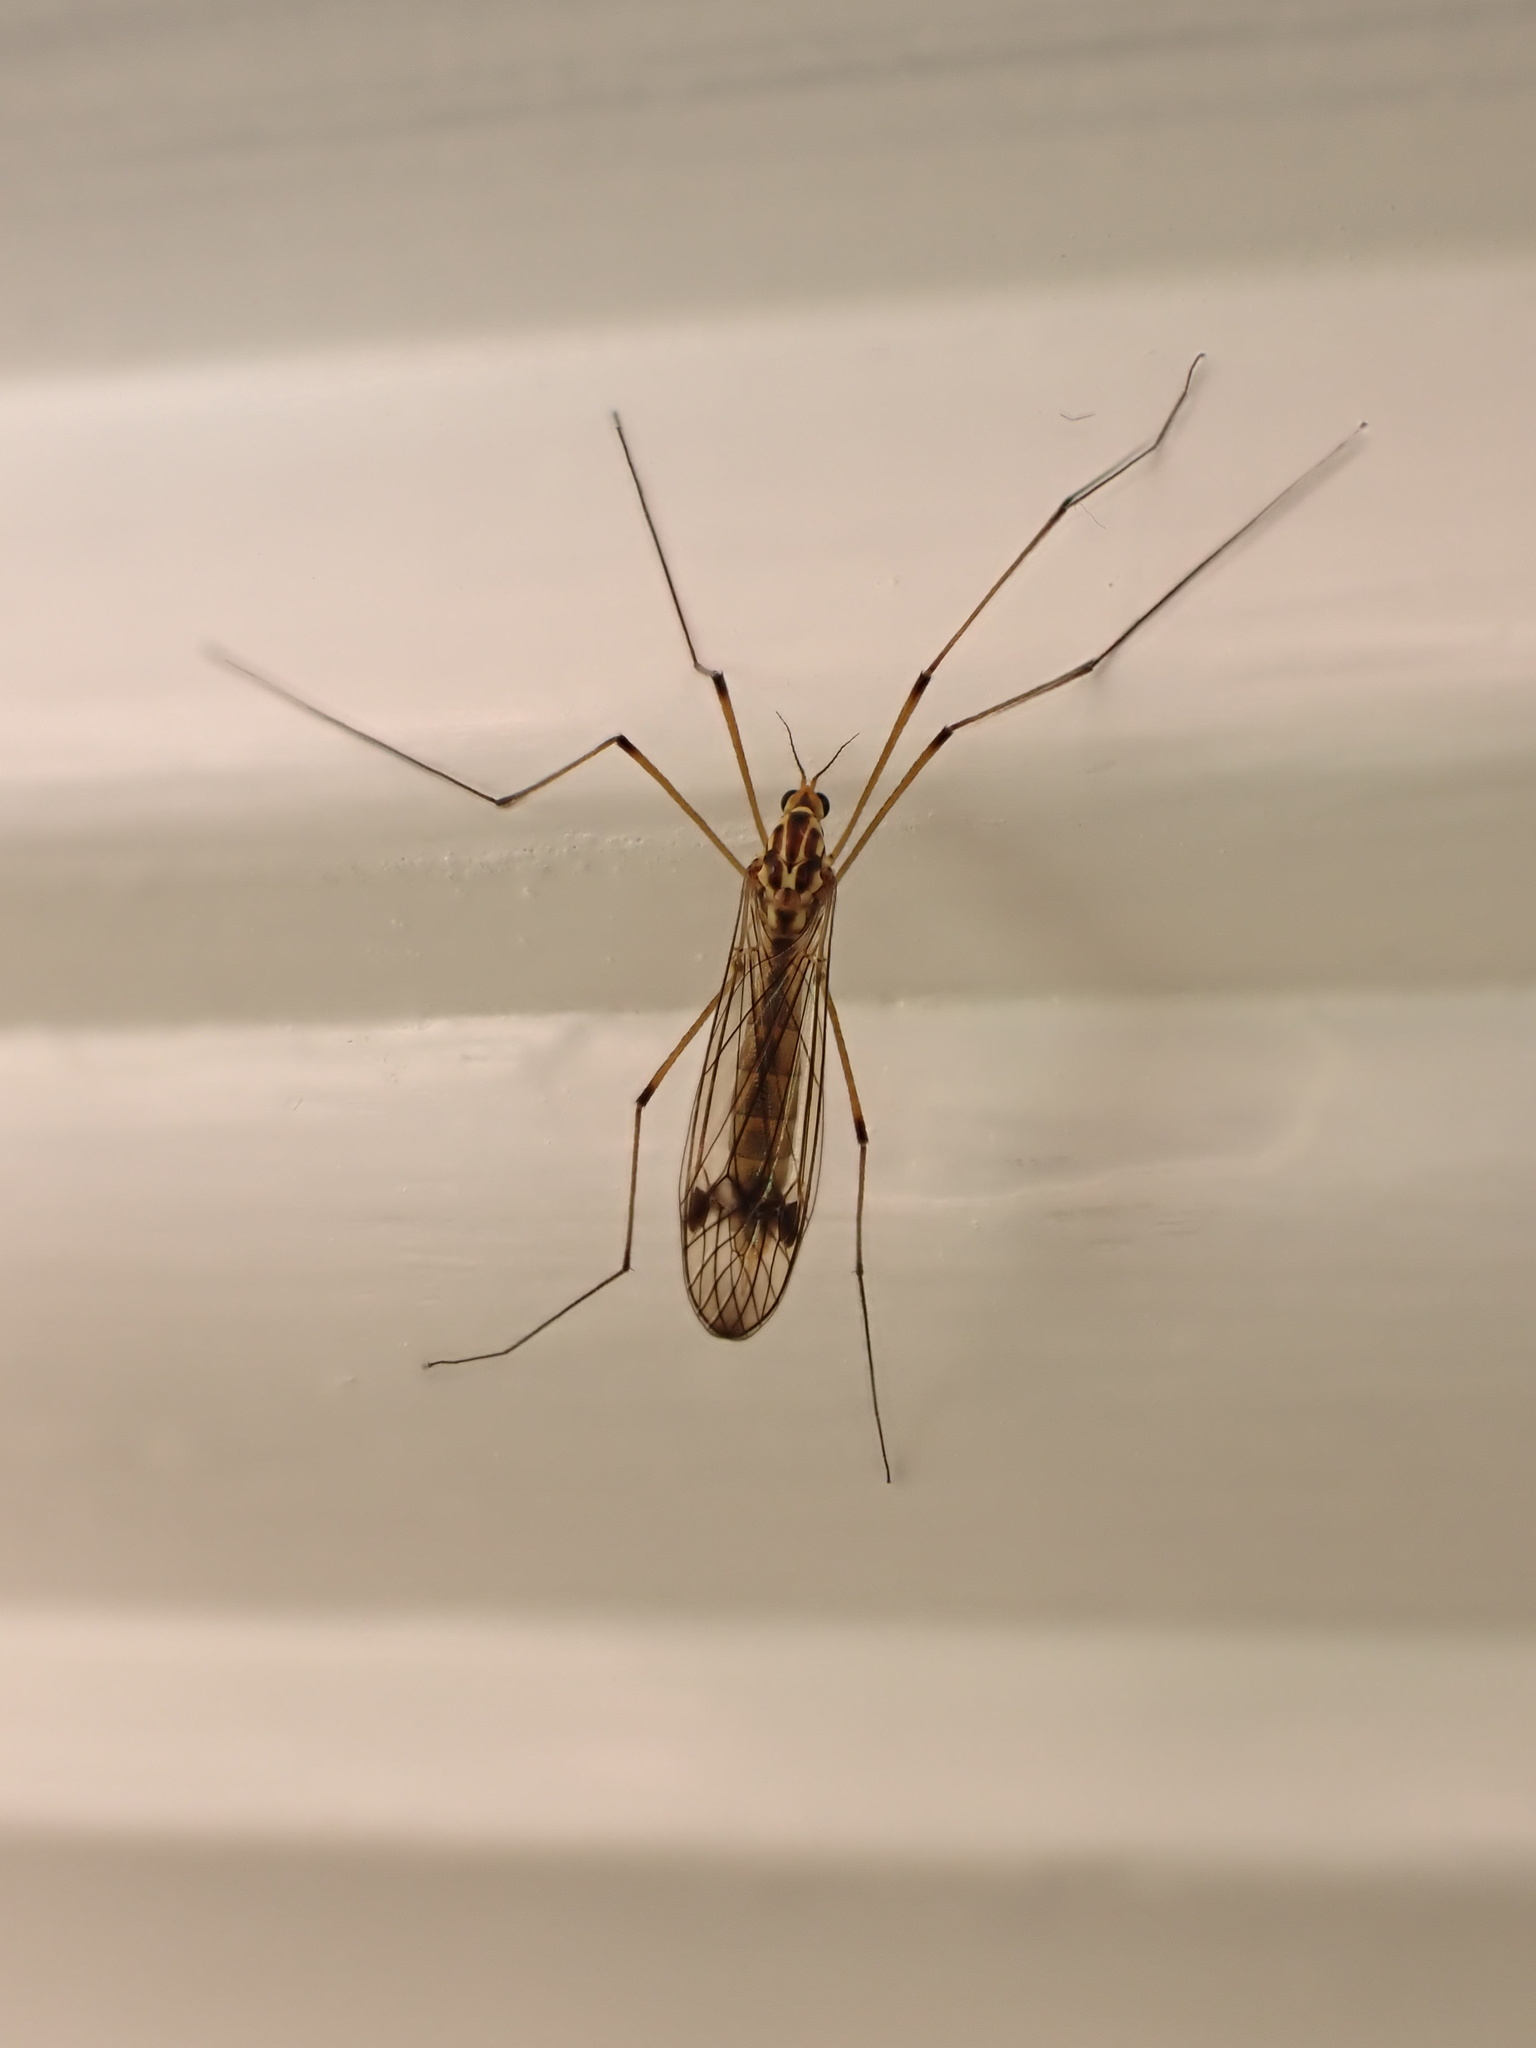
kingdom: Animalia
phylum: Arthropoda
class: Insecta
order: Diptera
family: Tipulidae
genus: Nephrotoma
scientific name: Nephrotoma quadrifaria
